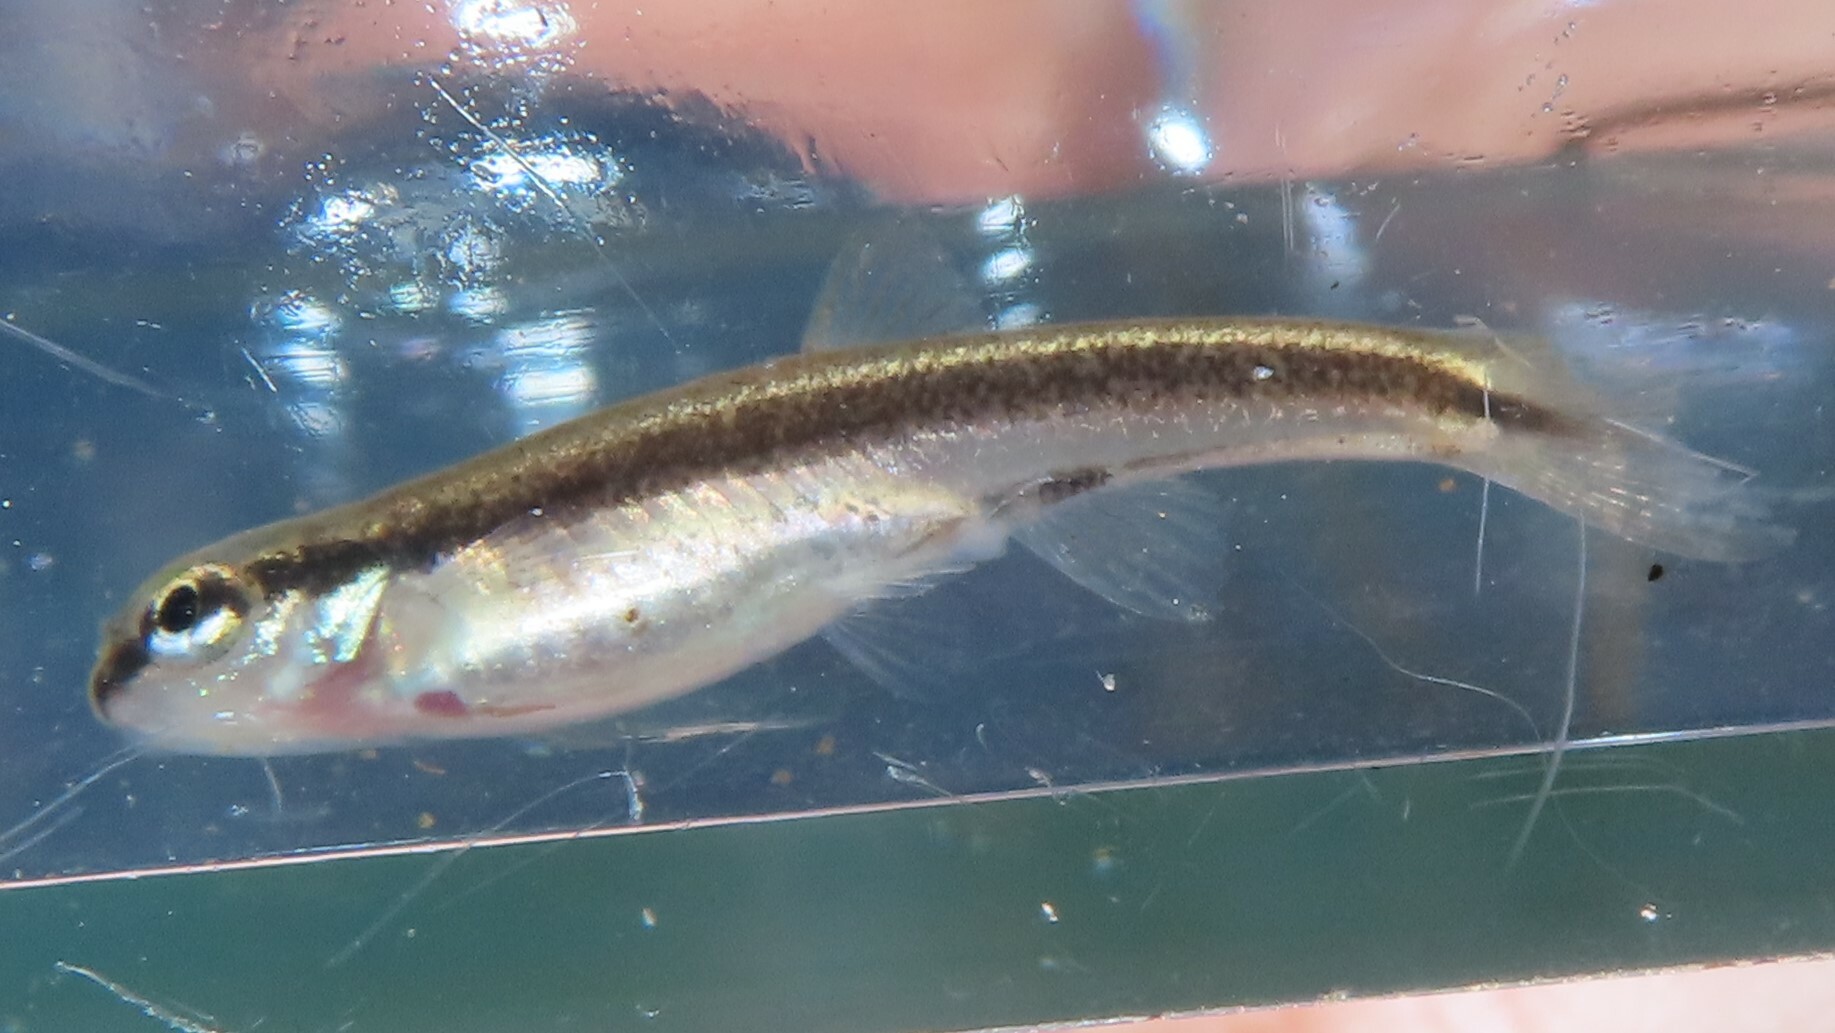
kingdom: Animalia
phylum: Chordata
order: Cypriniformes
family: Cyprinidae
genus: Rhinichthys
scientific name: Rhinichthys atratulus
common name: Eastern blacknose dace
